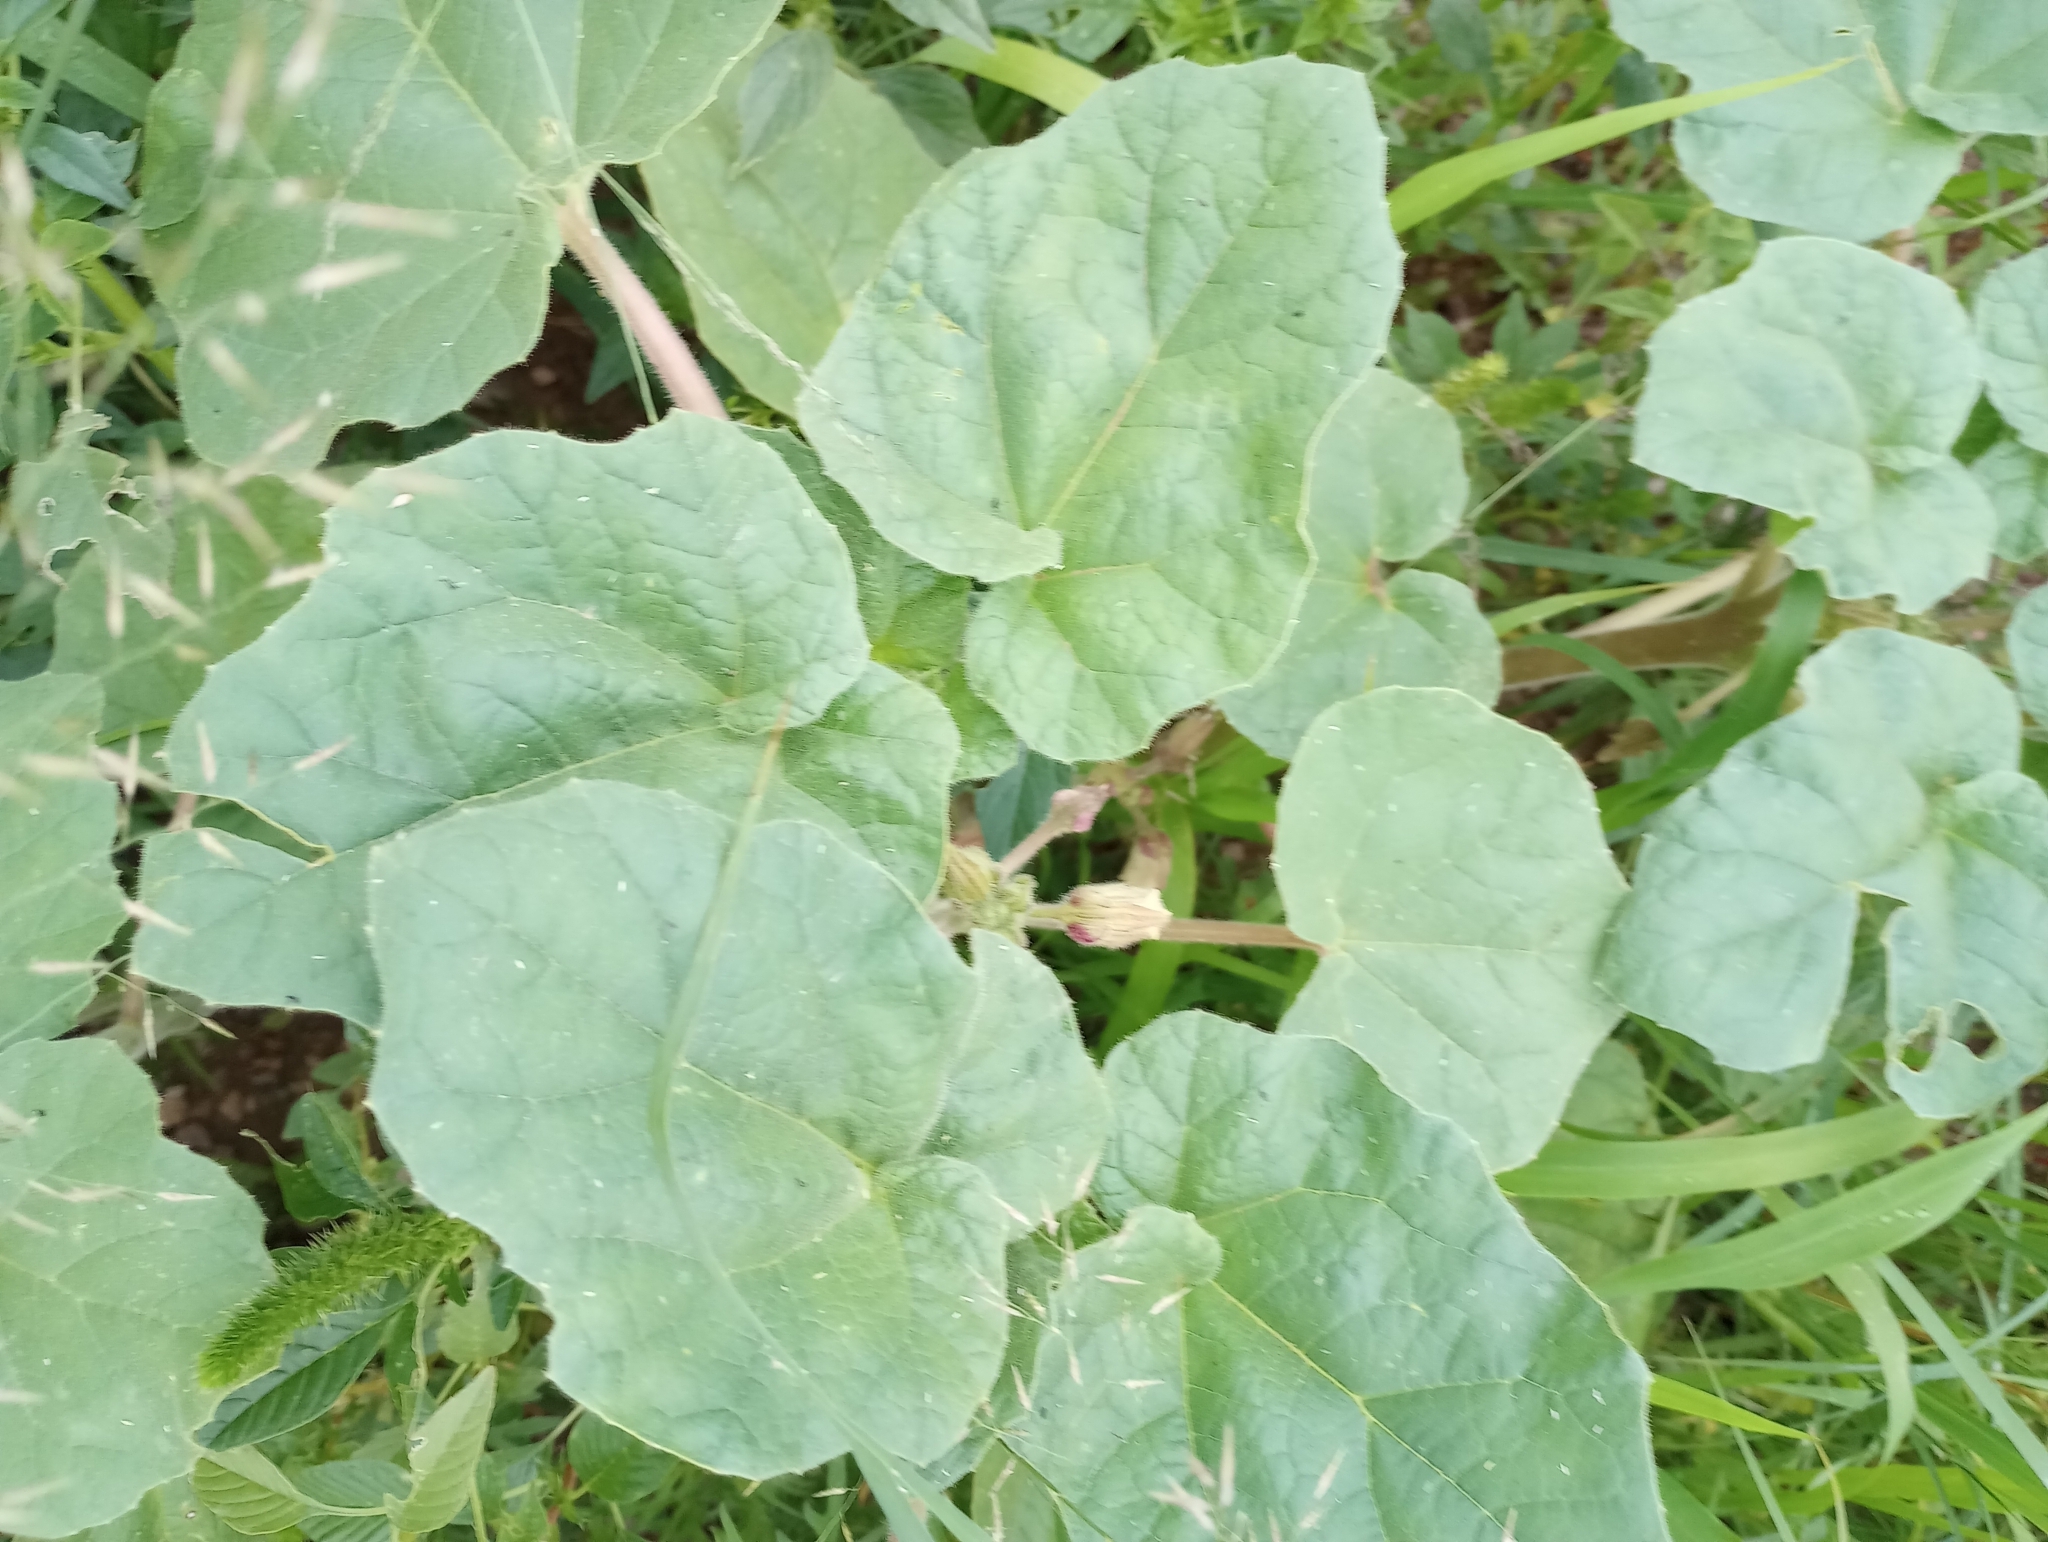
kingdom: Plantae
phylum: Tracheophyta
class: Magnoliopsida
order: Lamiales
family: Martyniaceae
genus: Proboscidea
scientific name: Proboscidea parviflora
